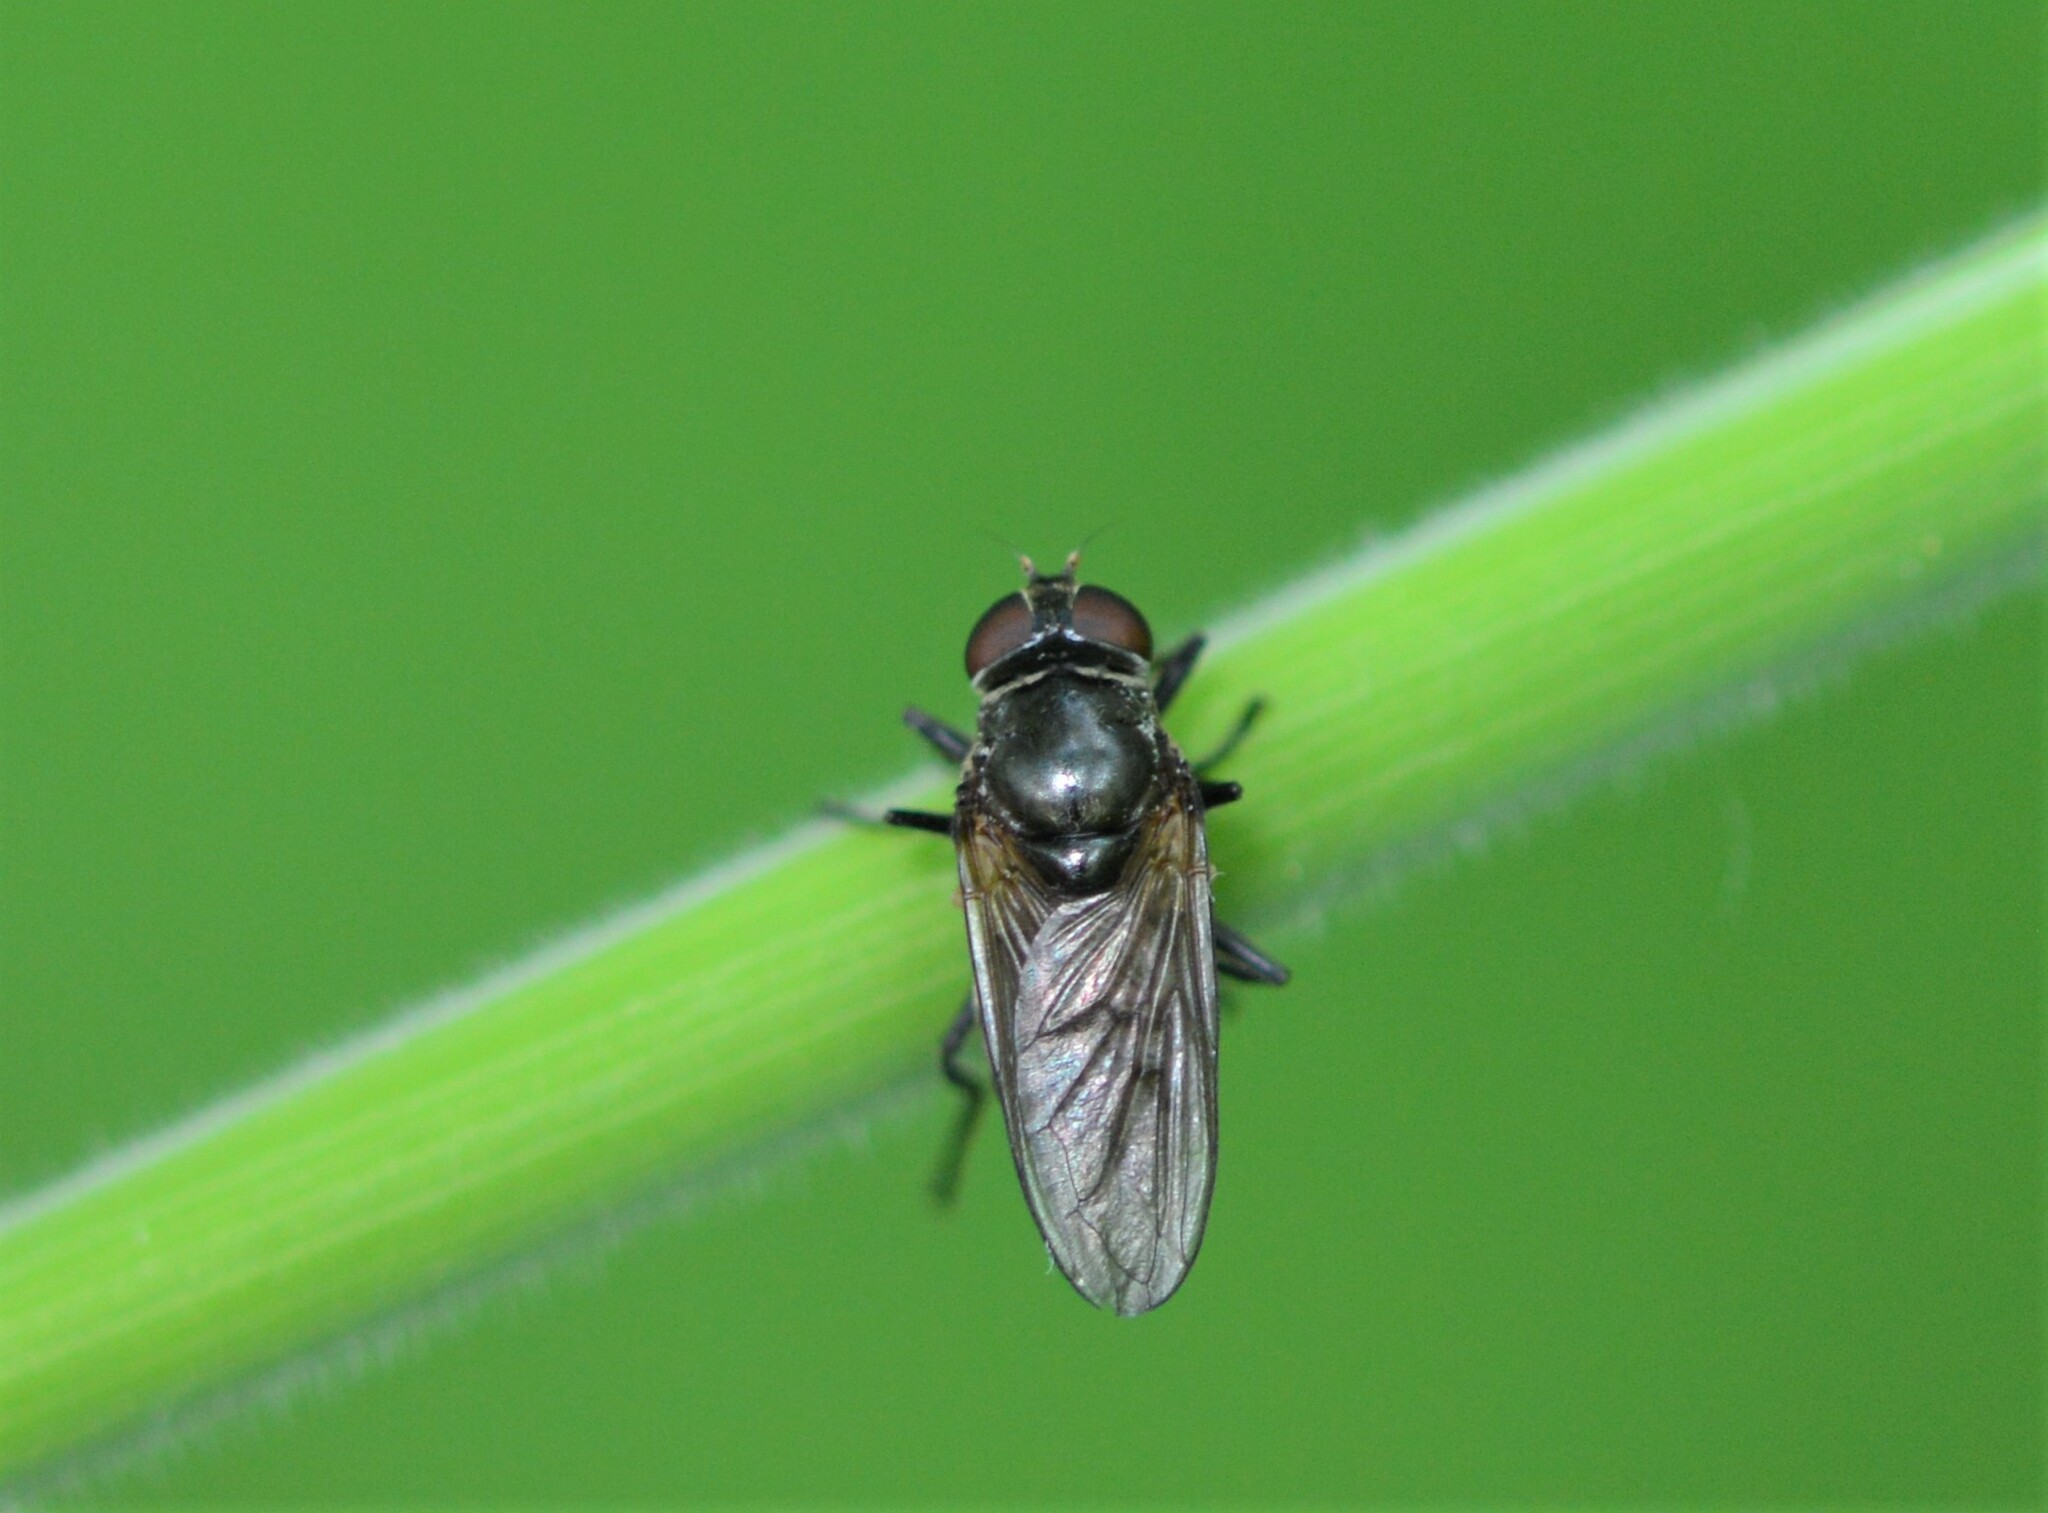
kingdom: Animalia
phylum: Arthropoda
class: Insecta
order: Diptera
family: Syrphidae
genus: Portevinia
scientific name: Portevinia maculata
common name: Ramson's hoverfly
